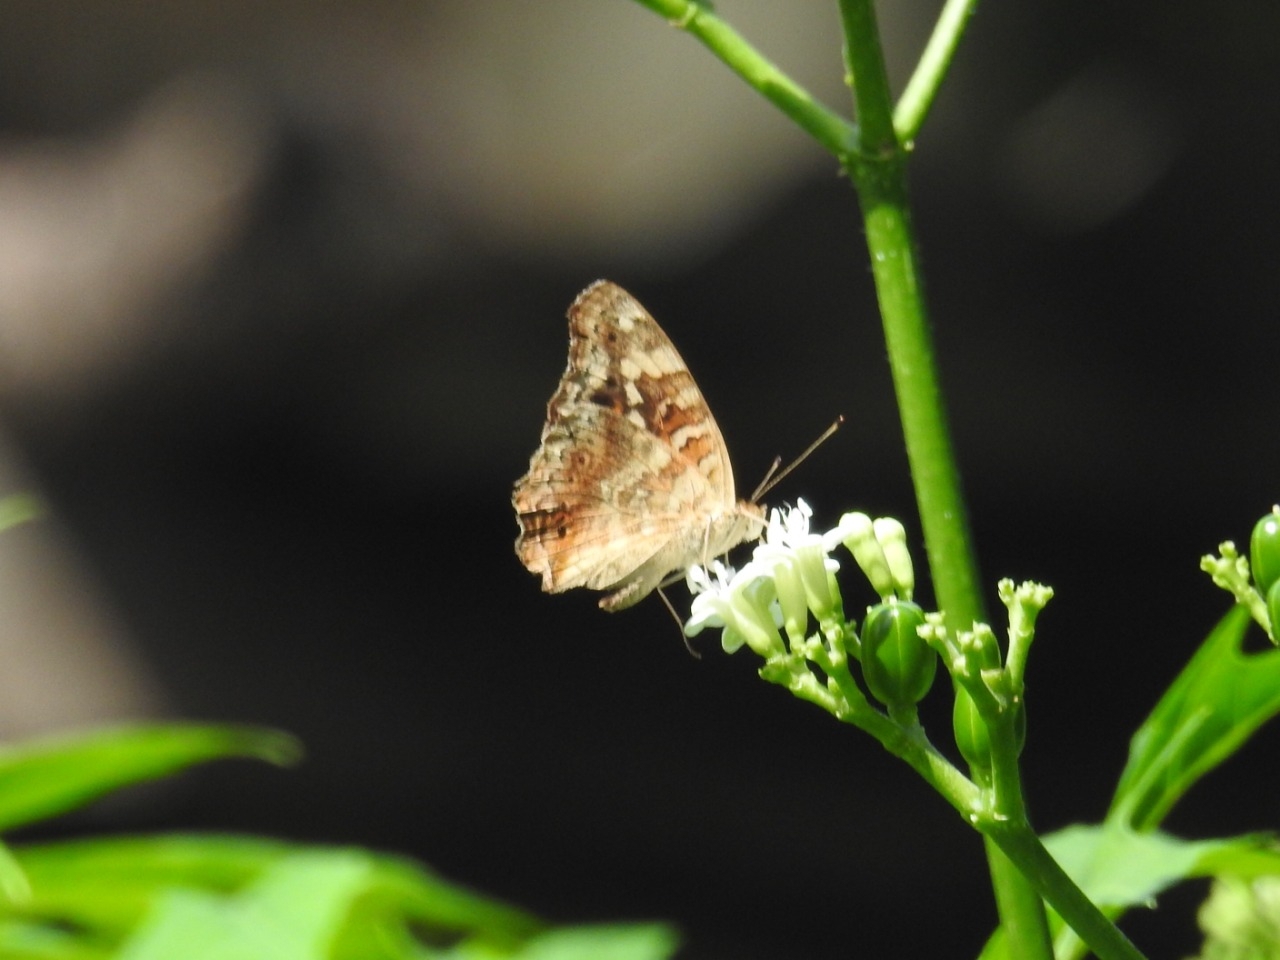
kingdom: Animalia
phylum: Arthropoda
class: Insecta
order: Lepidoptera
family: Nymphalidae
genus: Junonia
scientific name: Junonia erigone
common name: Northern argus
